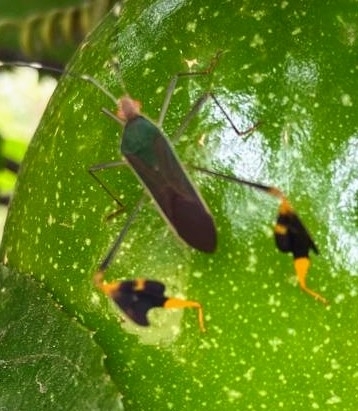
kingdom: Animalia
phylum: Arthropoda
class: Insecta
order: Hemiptera
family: Coreidae
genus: Anisoscelis
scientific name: Anisoscelis marginellus
